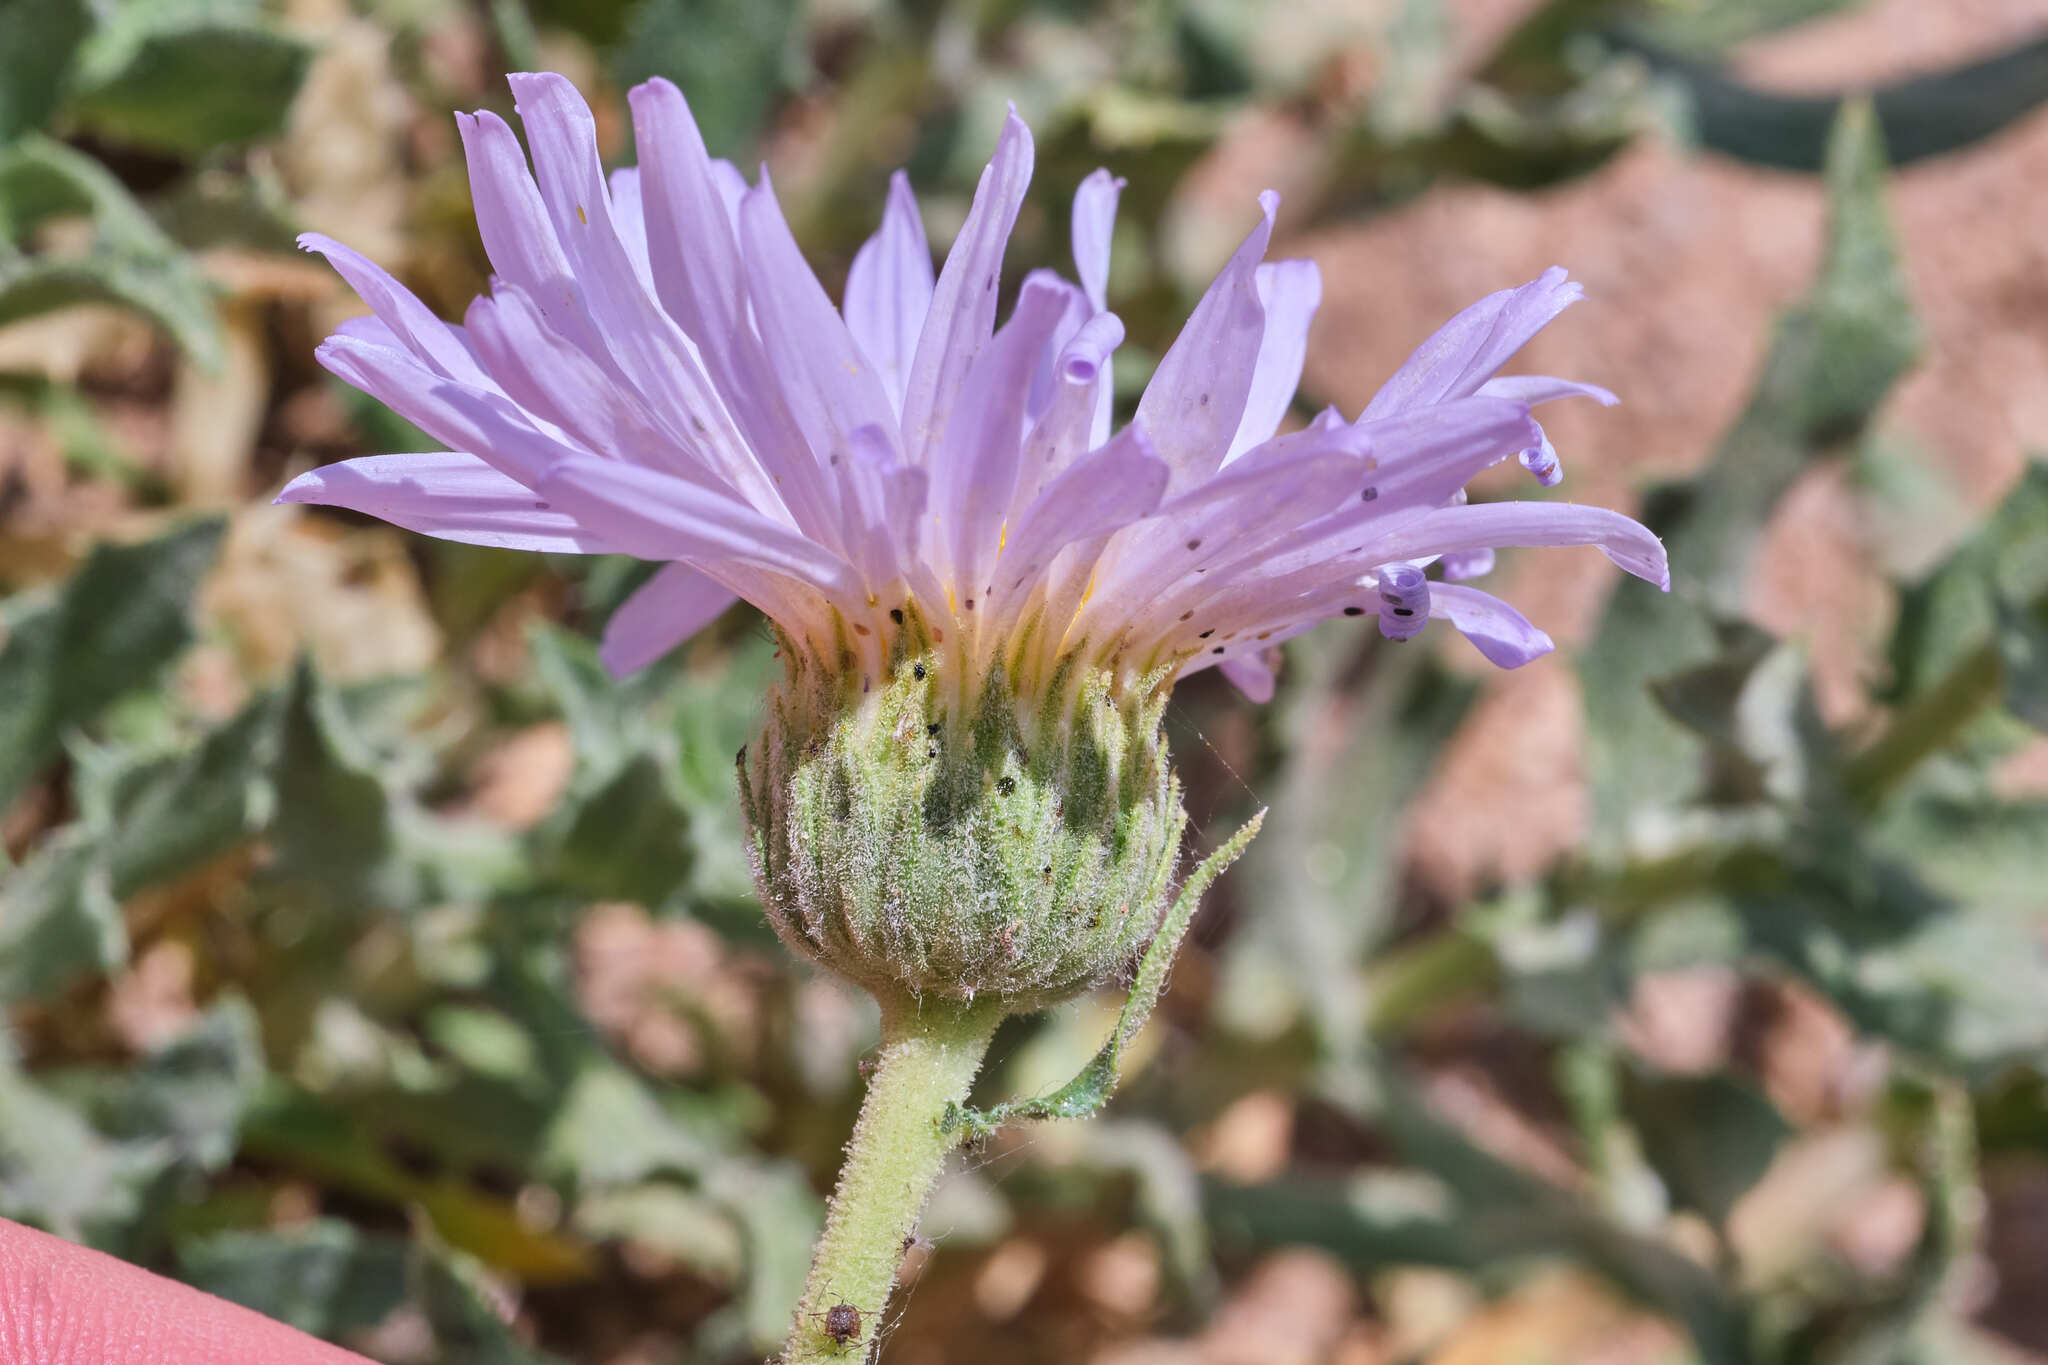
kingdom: Plantae
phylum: Tracheophyta
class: Magnoliopsida
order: Asterales
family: Asteraceae
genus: Xylorhiza
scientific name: Xylorhiza tortifolia
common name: Hurt-leaf woody-aster
